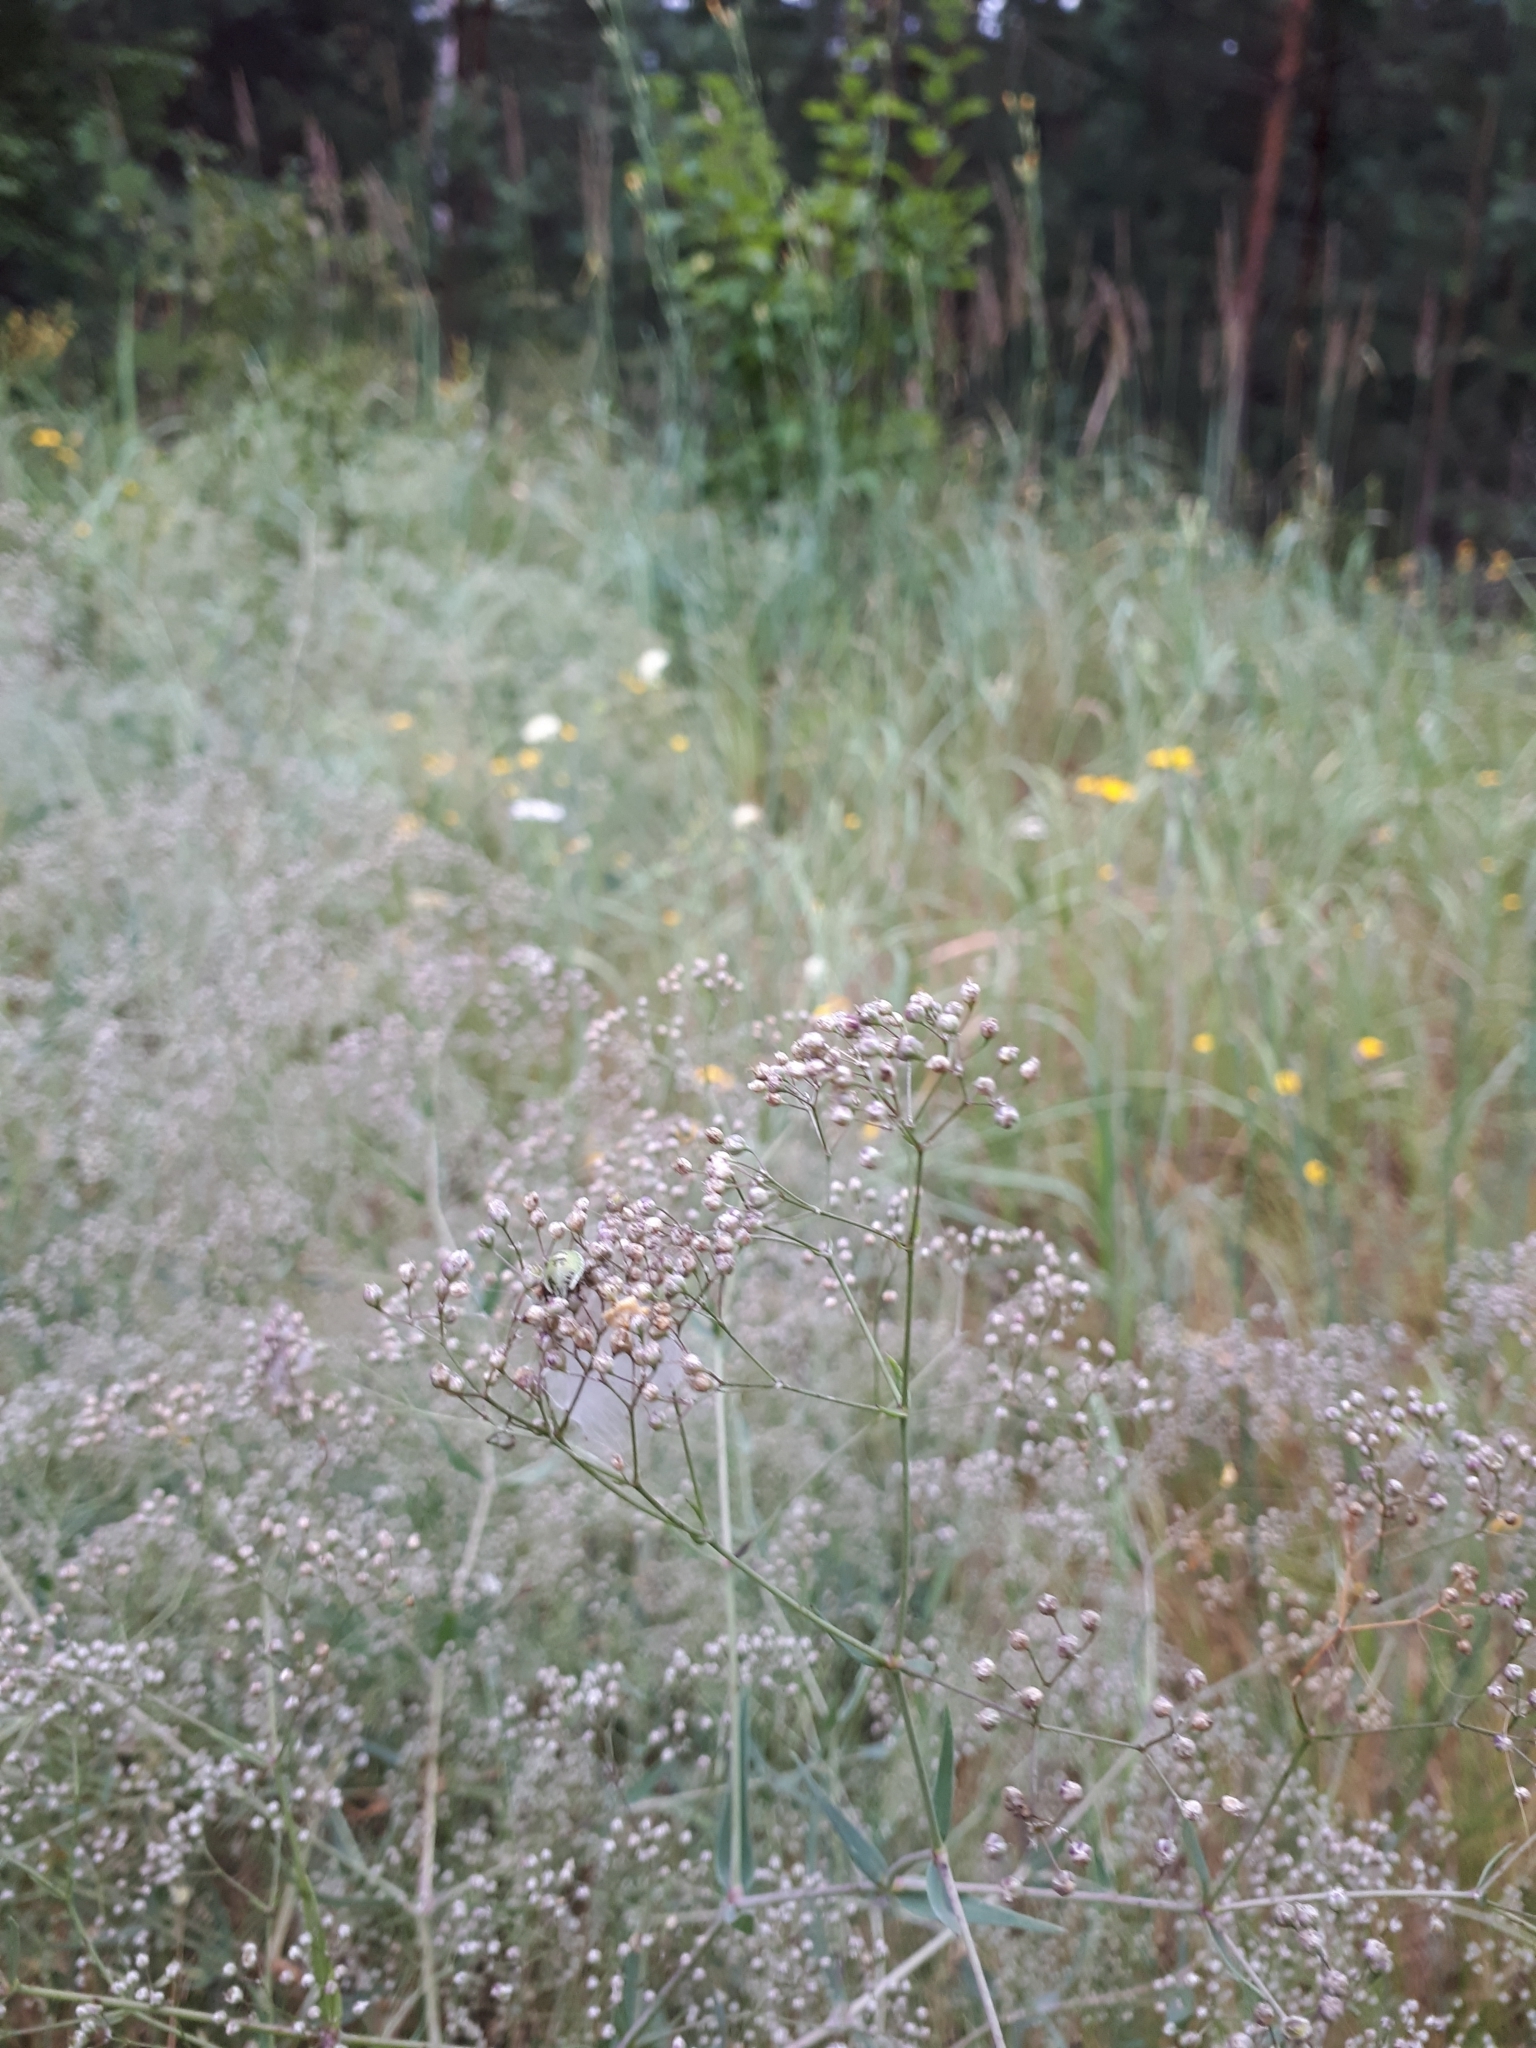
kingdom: Plantae
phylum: Tracheophyta
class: Magnoliopsida
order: Caryophyllales
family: Caryophyllaceae
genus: Gypsophila
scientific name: Gypsophila paniculata
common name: Baby's-breath
